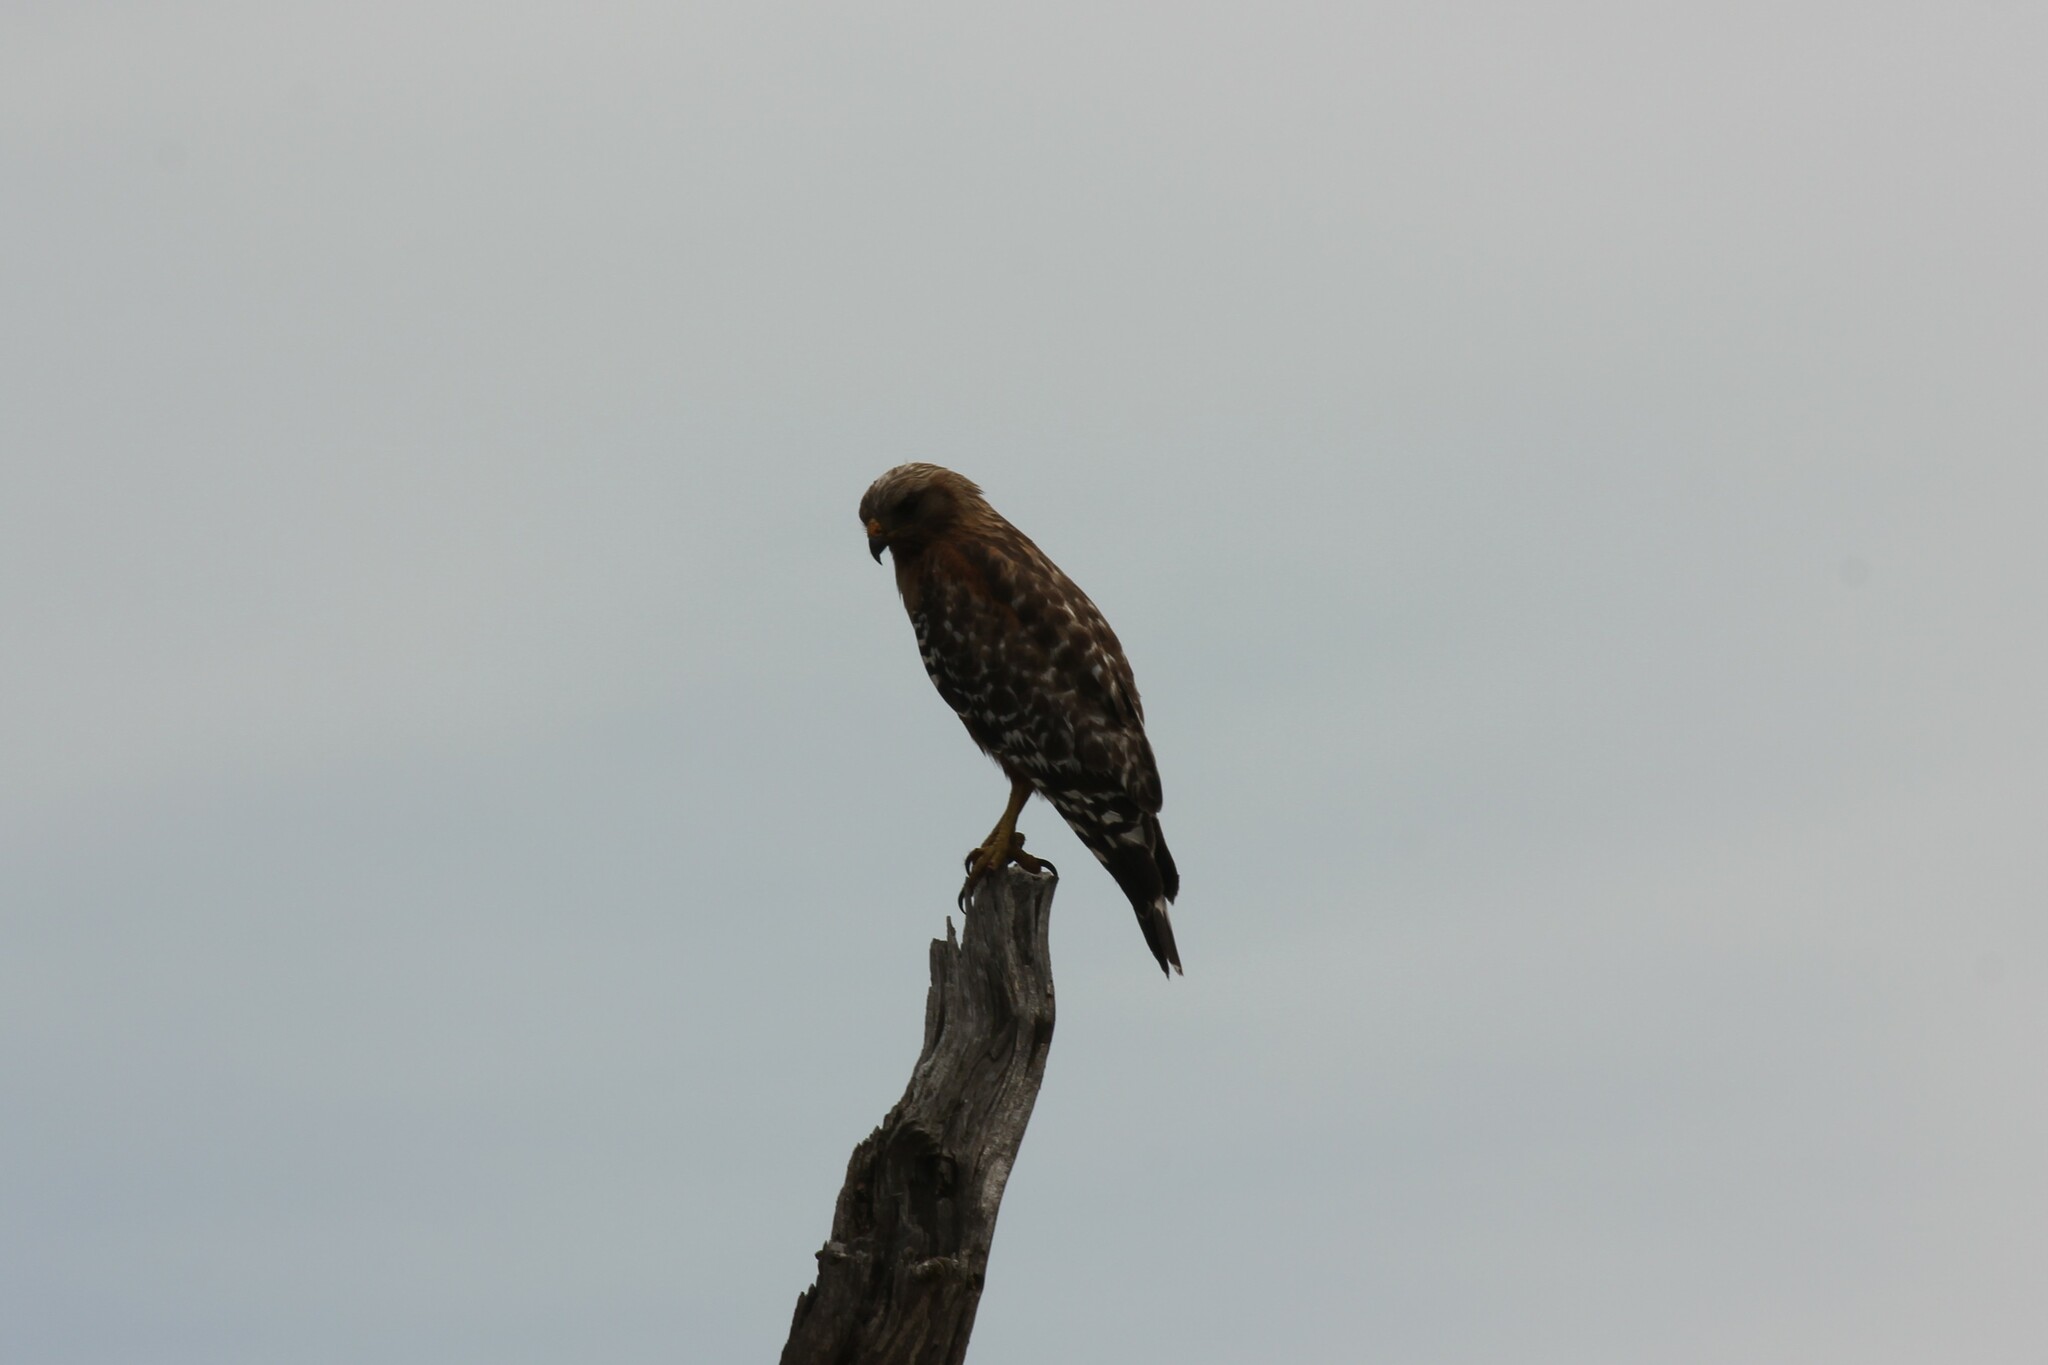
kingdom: Animalia
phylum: Chordata
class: Aves
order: Accipitriformes
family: Accipitridae
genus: Buteo
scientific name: Buteo lineatus
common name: Red-shouldered hawk
